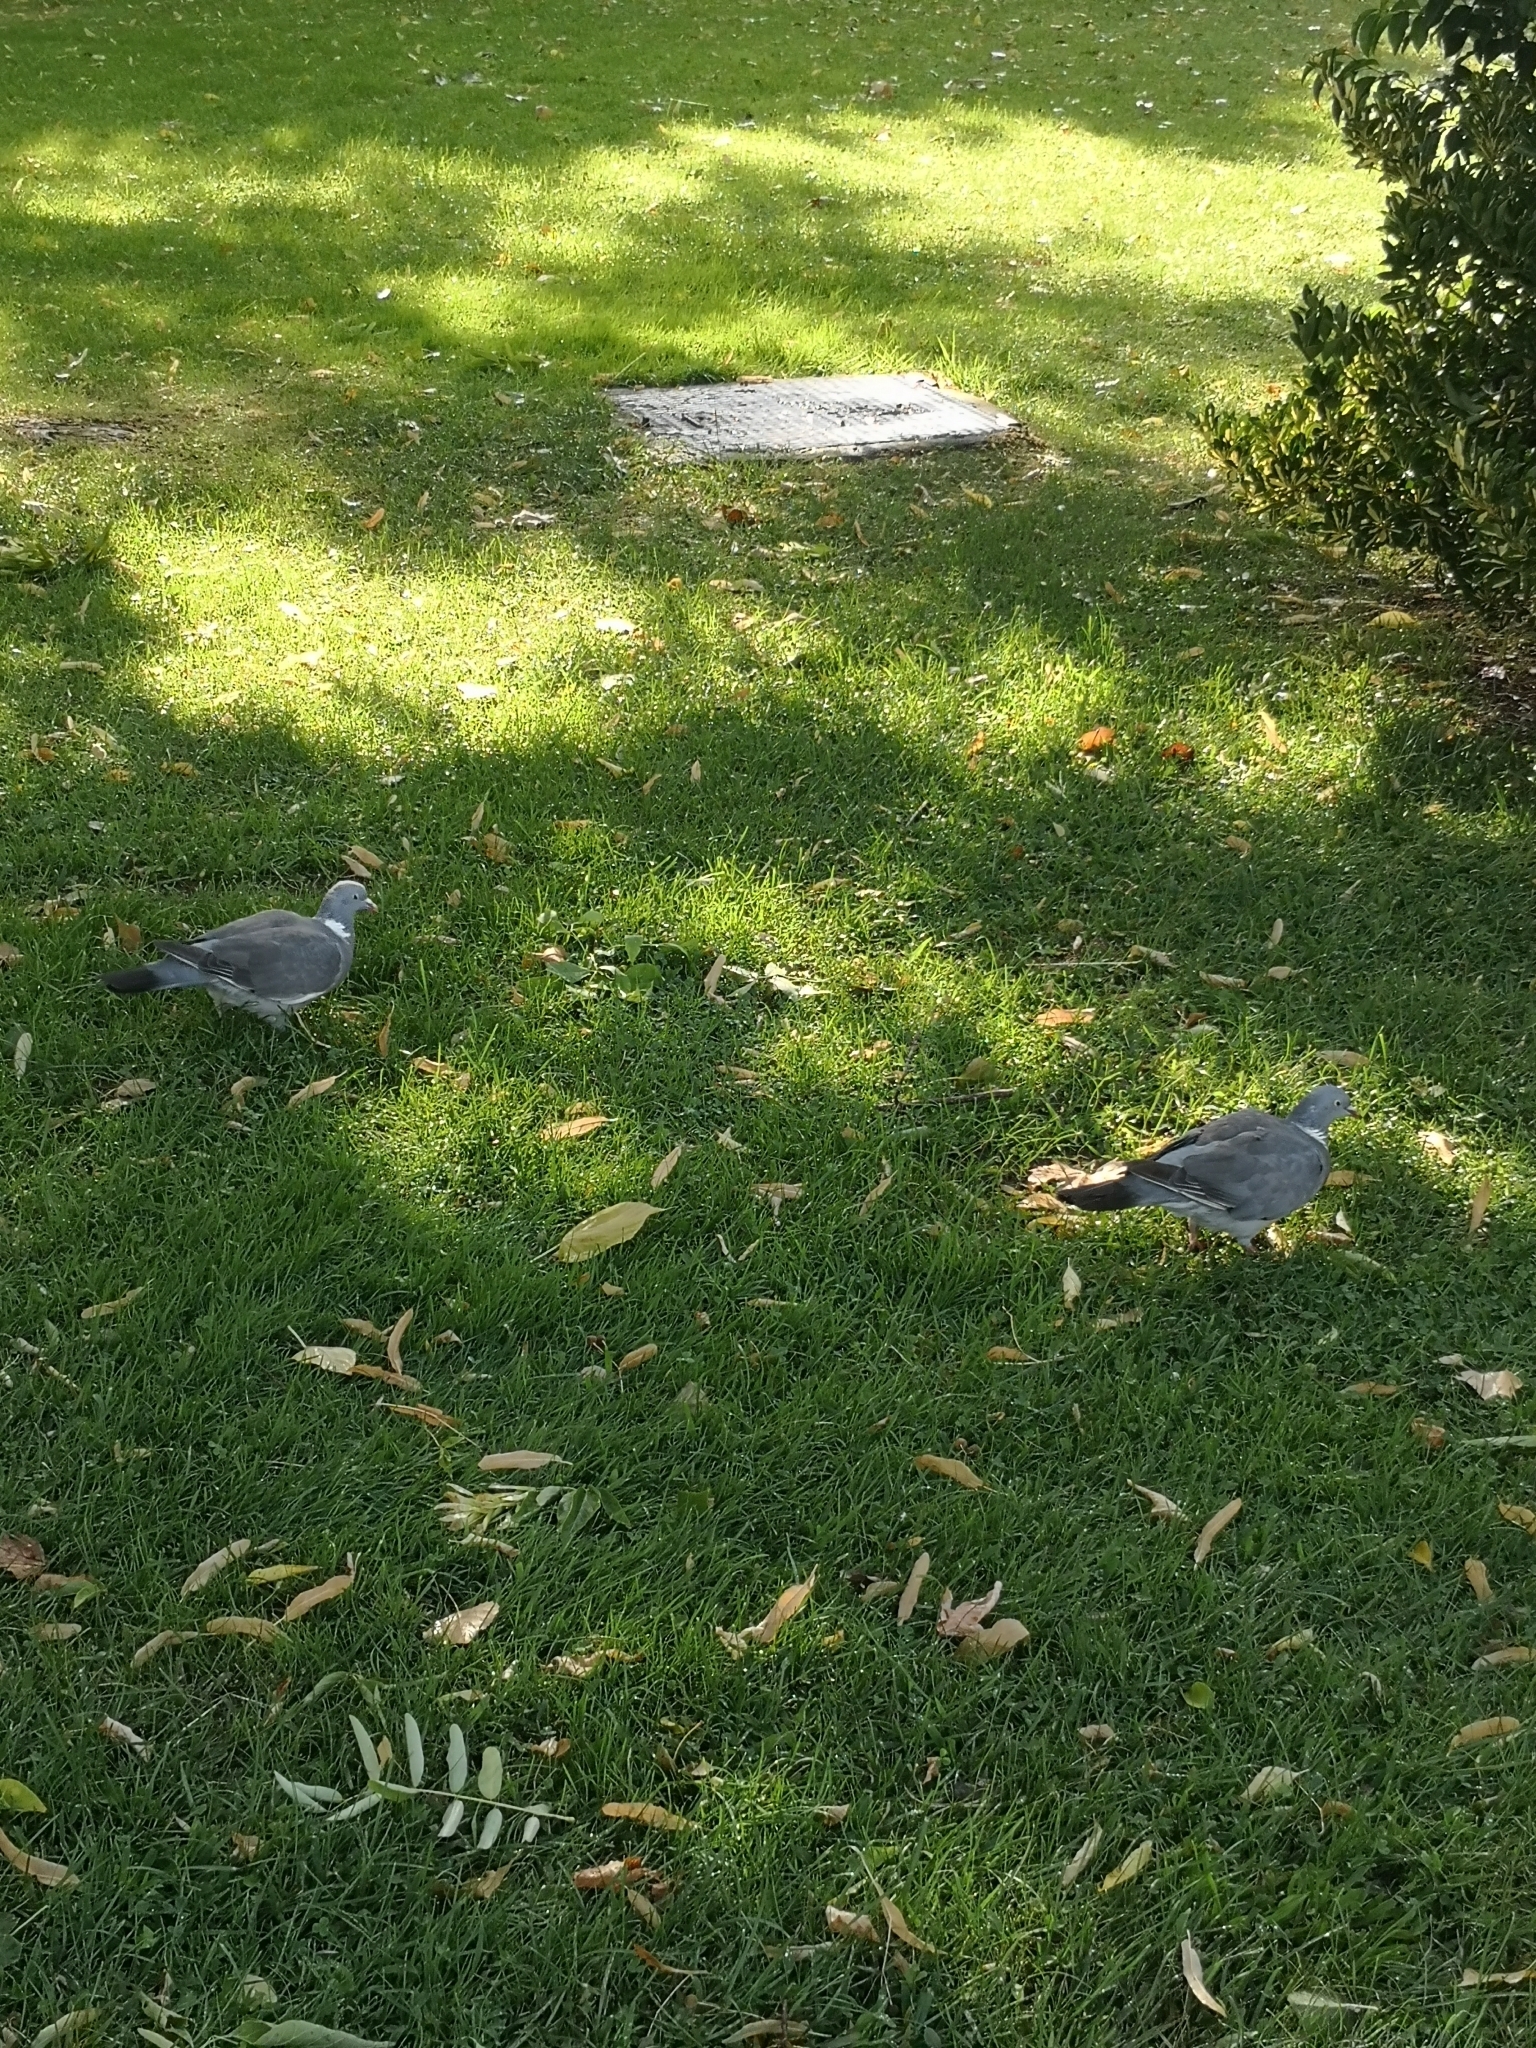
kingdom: Animalia
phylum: Chordata
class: Aves
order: Columbiformes
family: Columbidae
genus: Columba
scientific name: Columba palumbus
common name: Common wood pigeon
